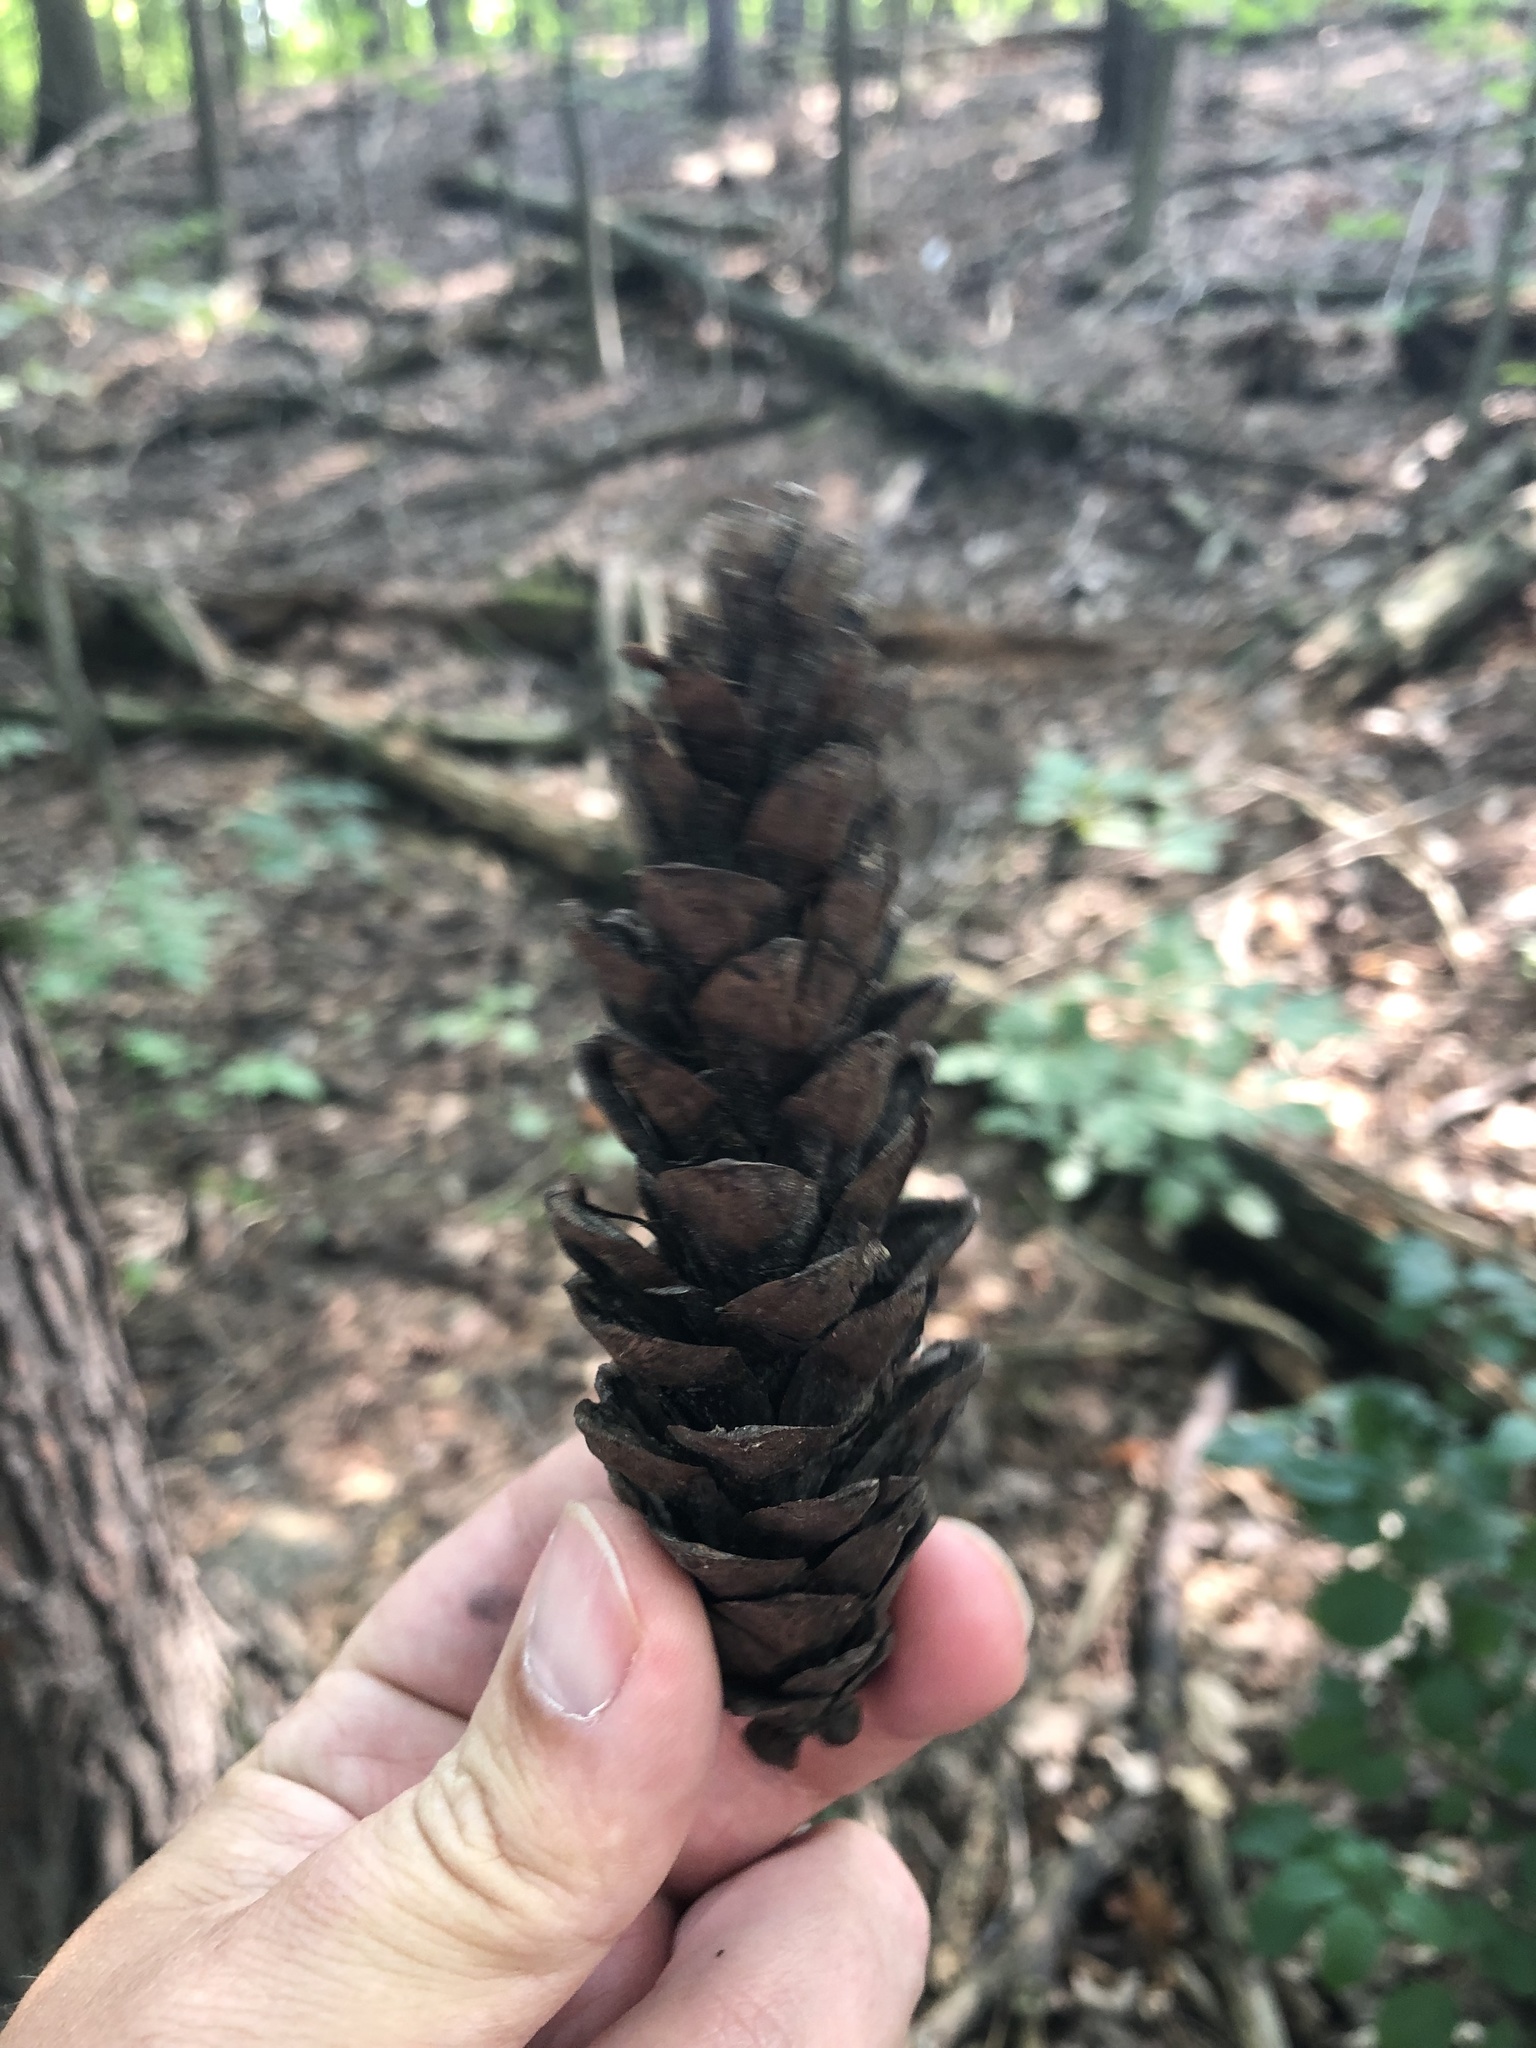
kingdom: Plantae
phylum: Tracheophyta
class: Pinopsida
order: Pinales
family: Pinaceae
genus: Pinus
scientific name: Pinus strobus
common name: Weymouth pine
